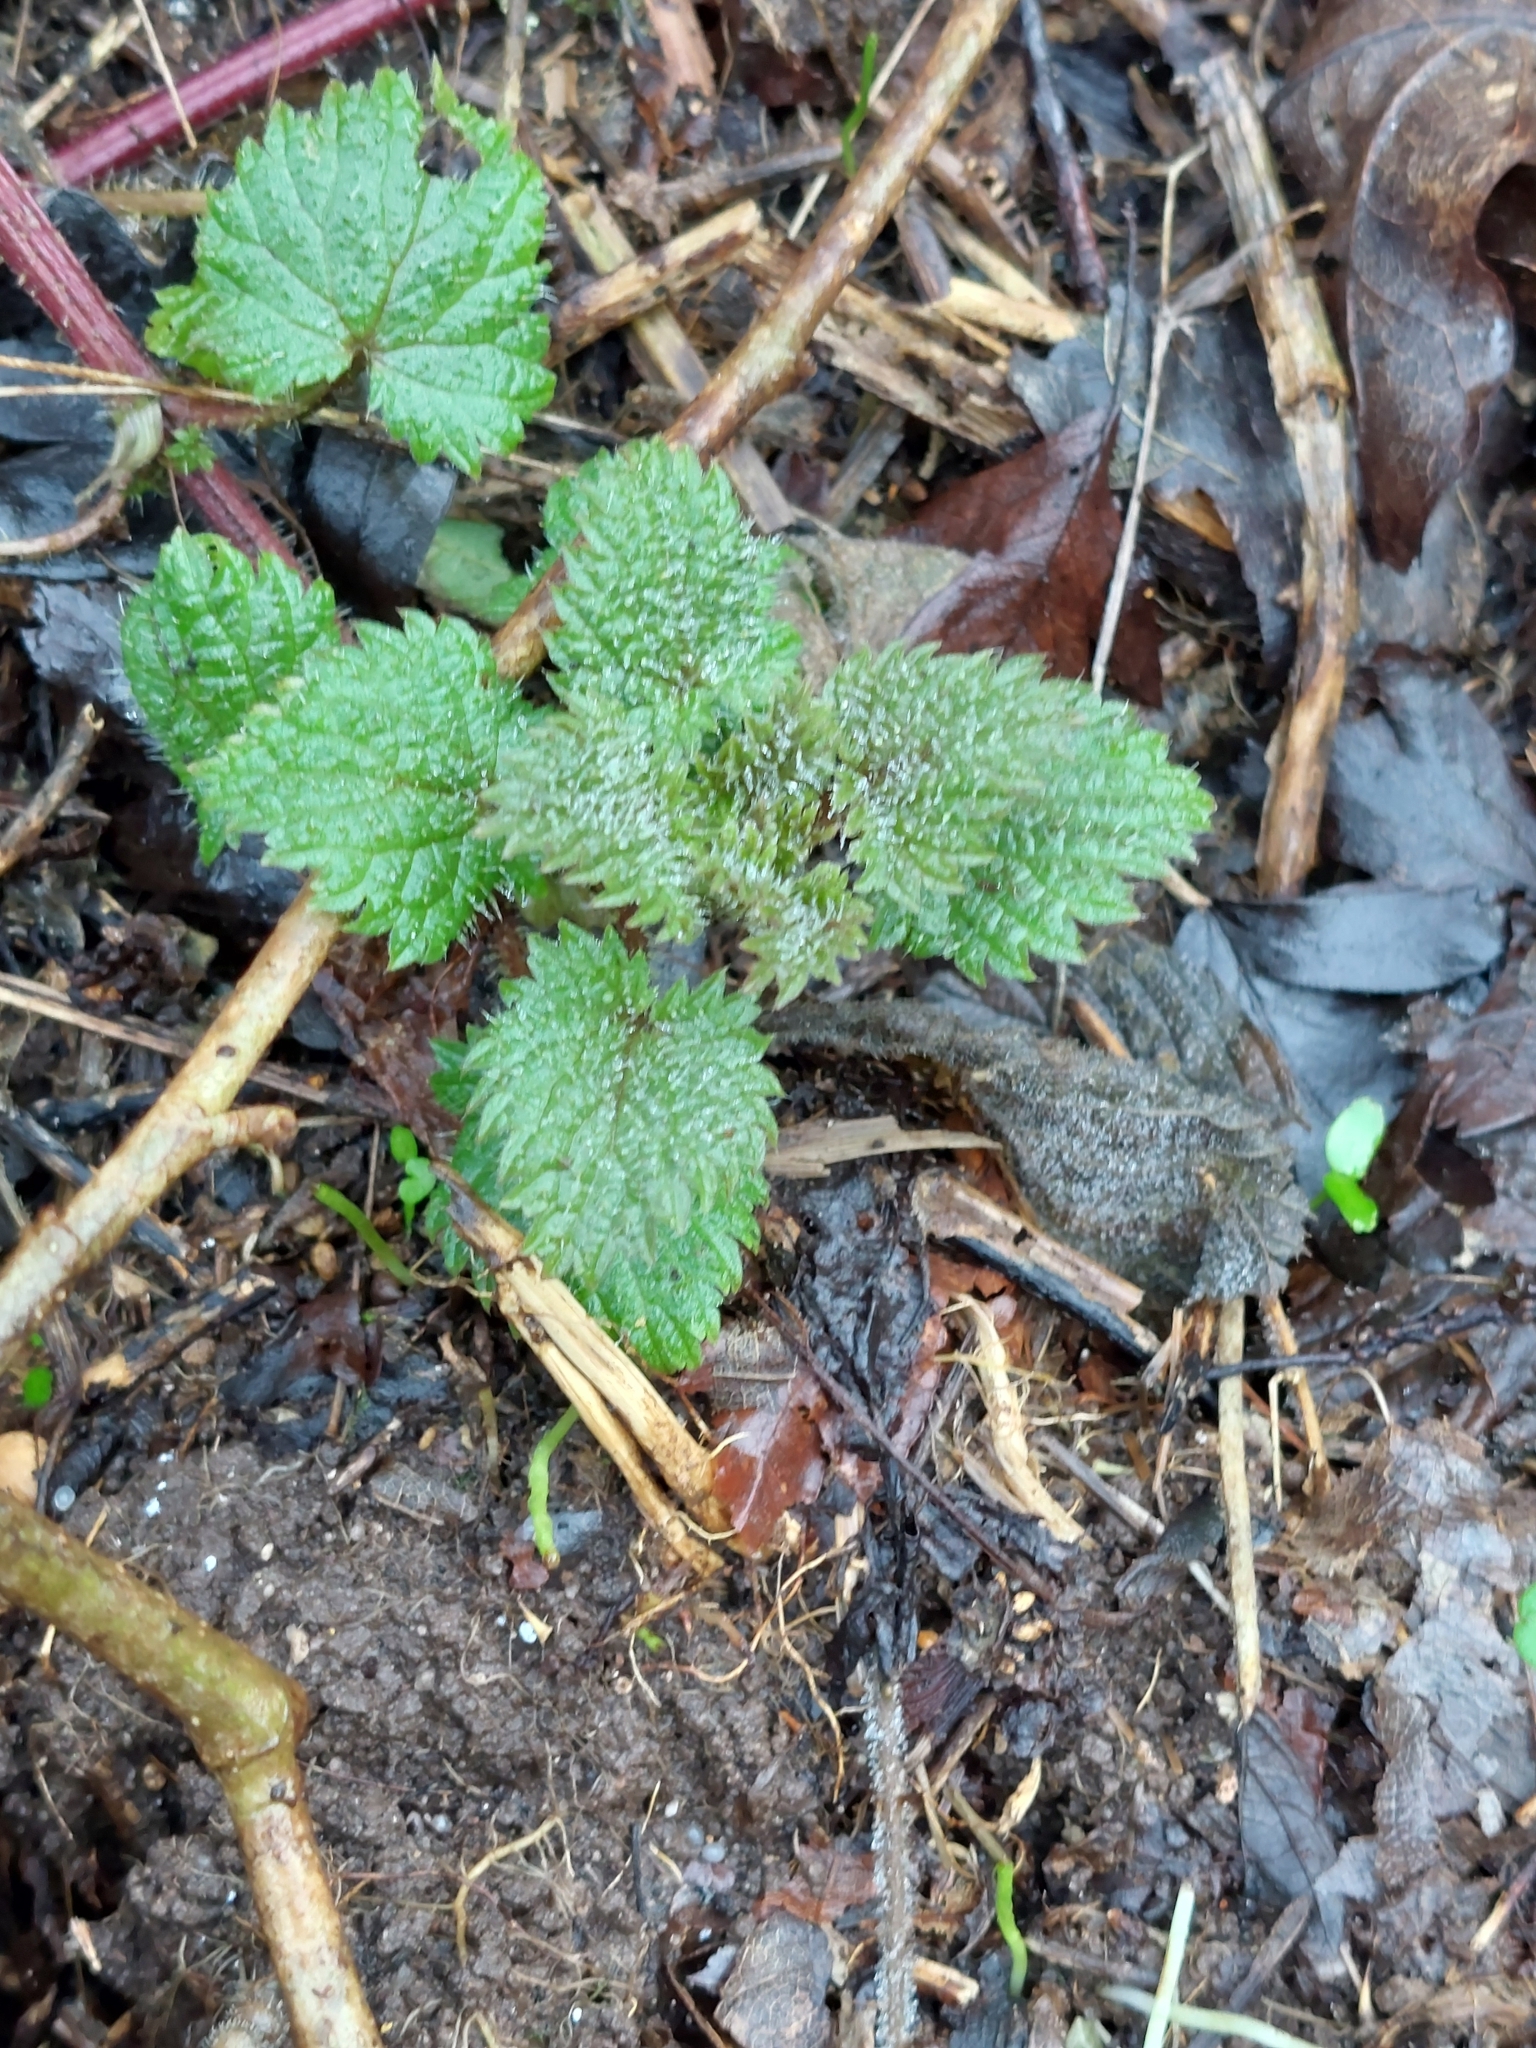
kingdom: Plantae
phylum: Tracheophyta
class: Magnoliopsida
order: Rosales
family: Urticaceae
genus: Urtica
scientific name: Urtica dioica
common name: Common nettle
